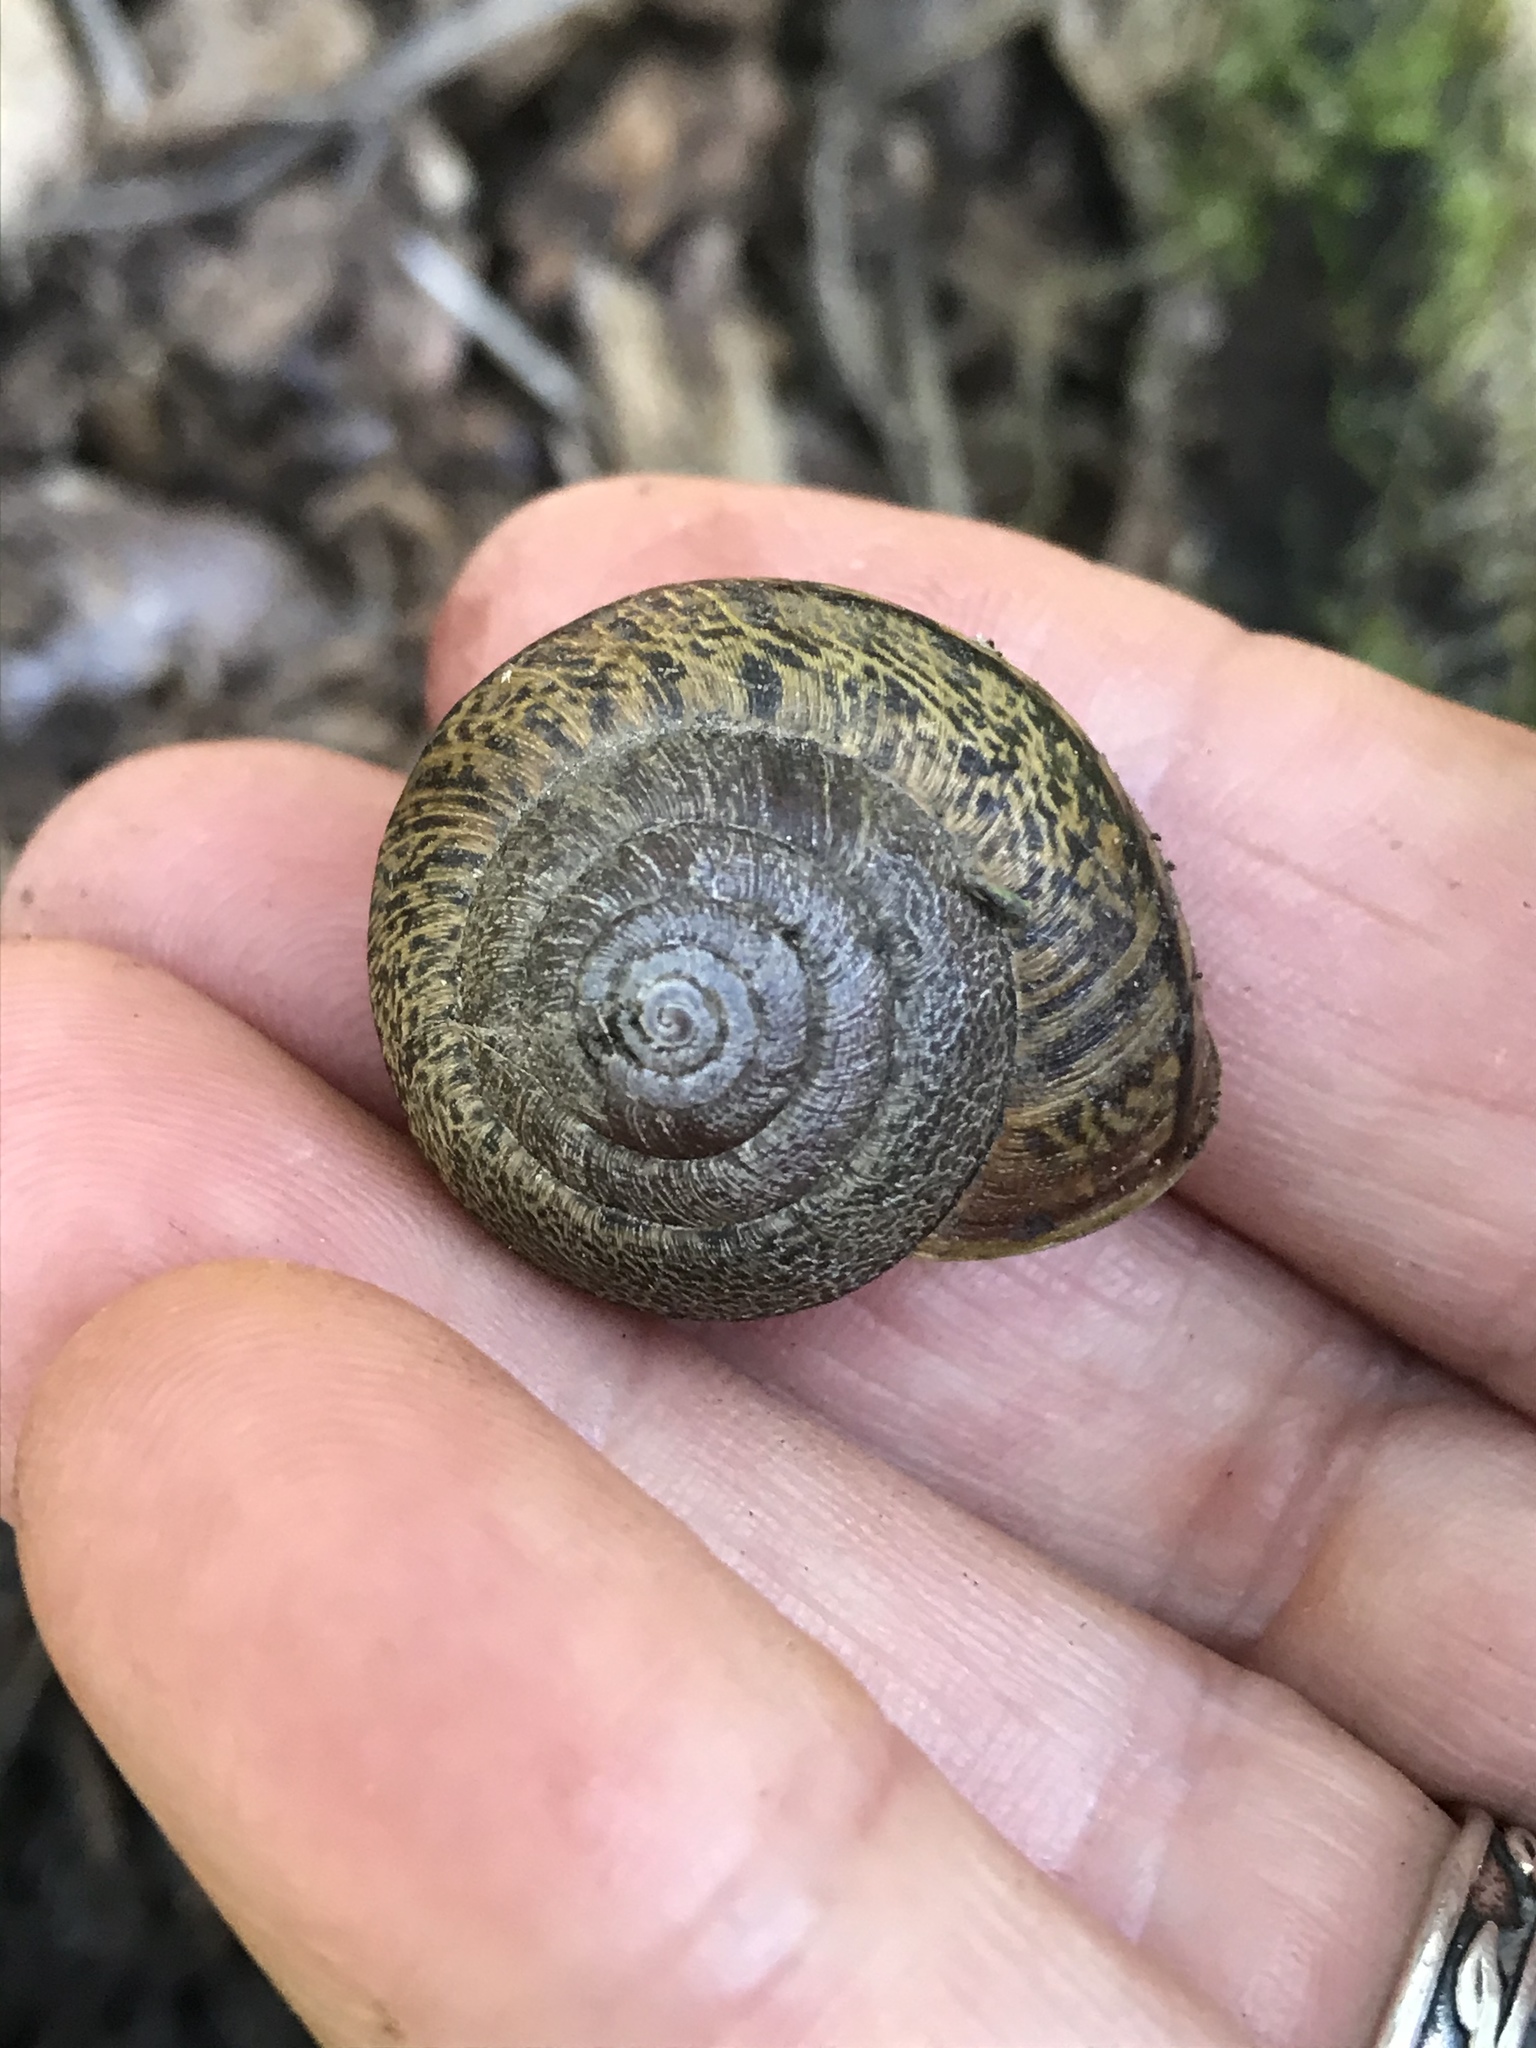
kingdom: Animalia
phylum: Mollusca
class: Gastropoda
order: Stylommatophora
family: Xanthonychidae
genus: Helminthoglypta
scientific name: Helminthoglypta arrosa
